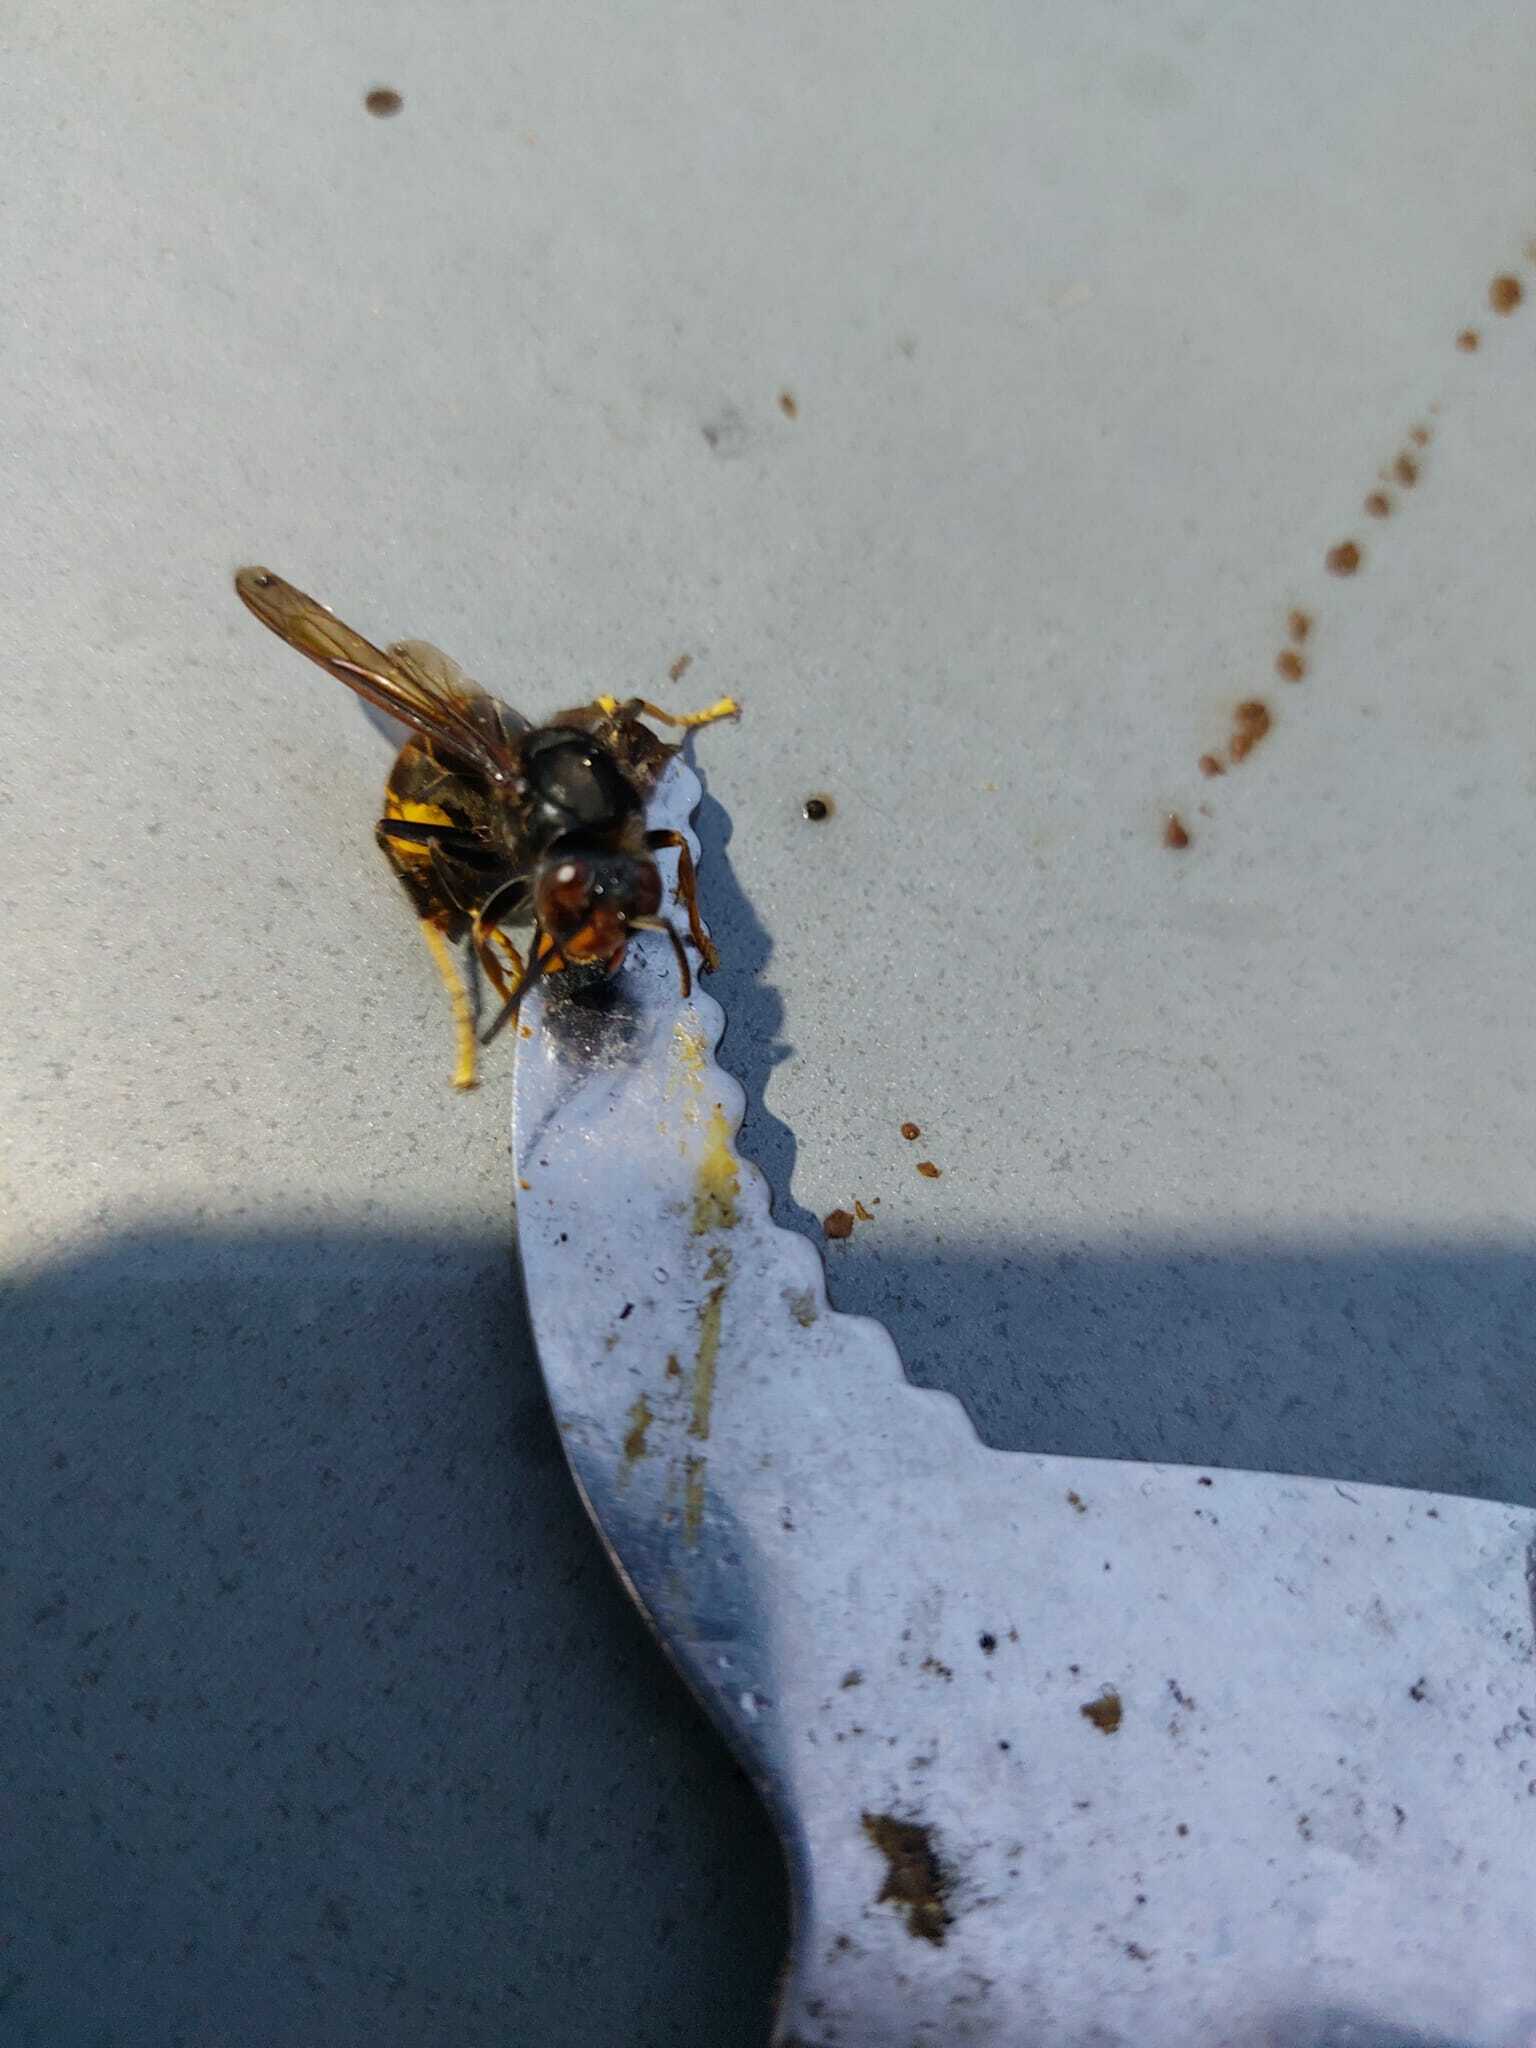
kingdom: Animalia
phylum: Arthropoda
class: Insecta
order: Hymenoptera
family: Vespidae
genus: Vespa
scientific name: Vespa velutina
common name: Asian hornet
